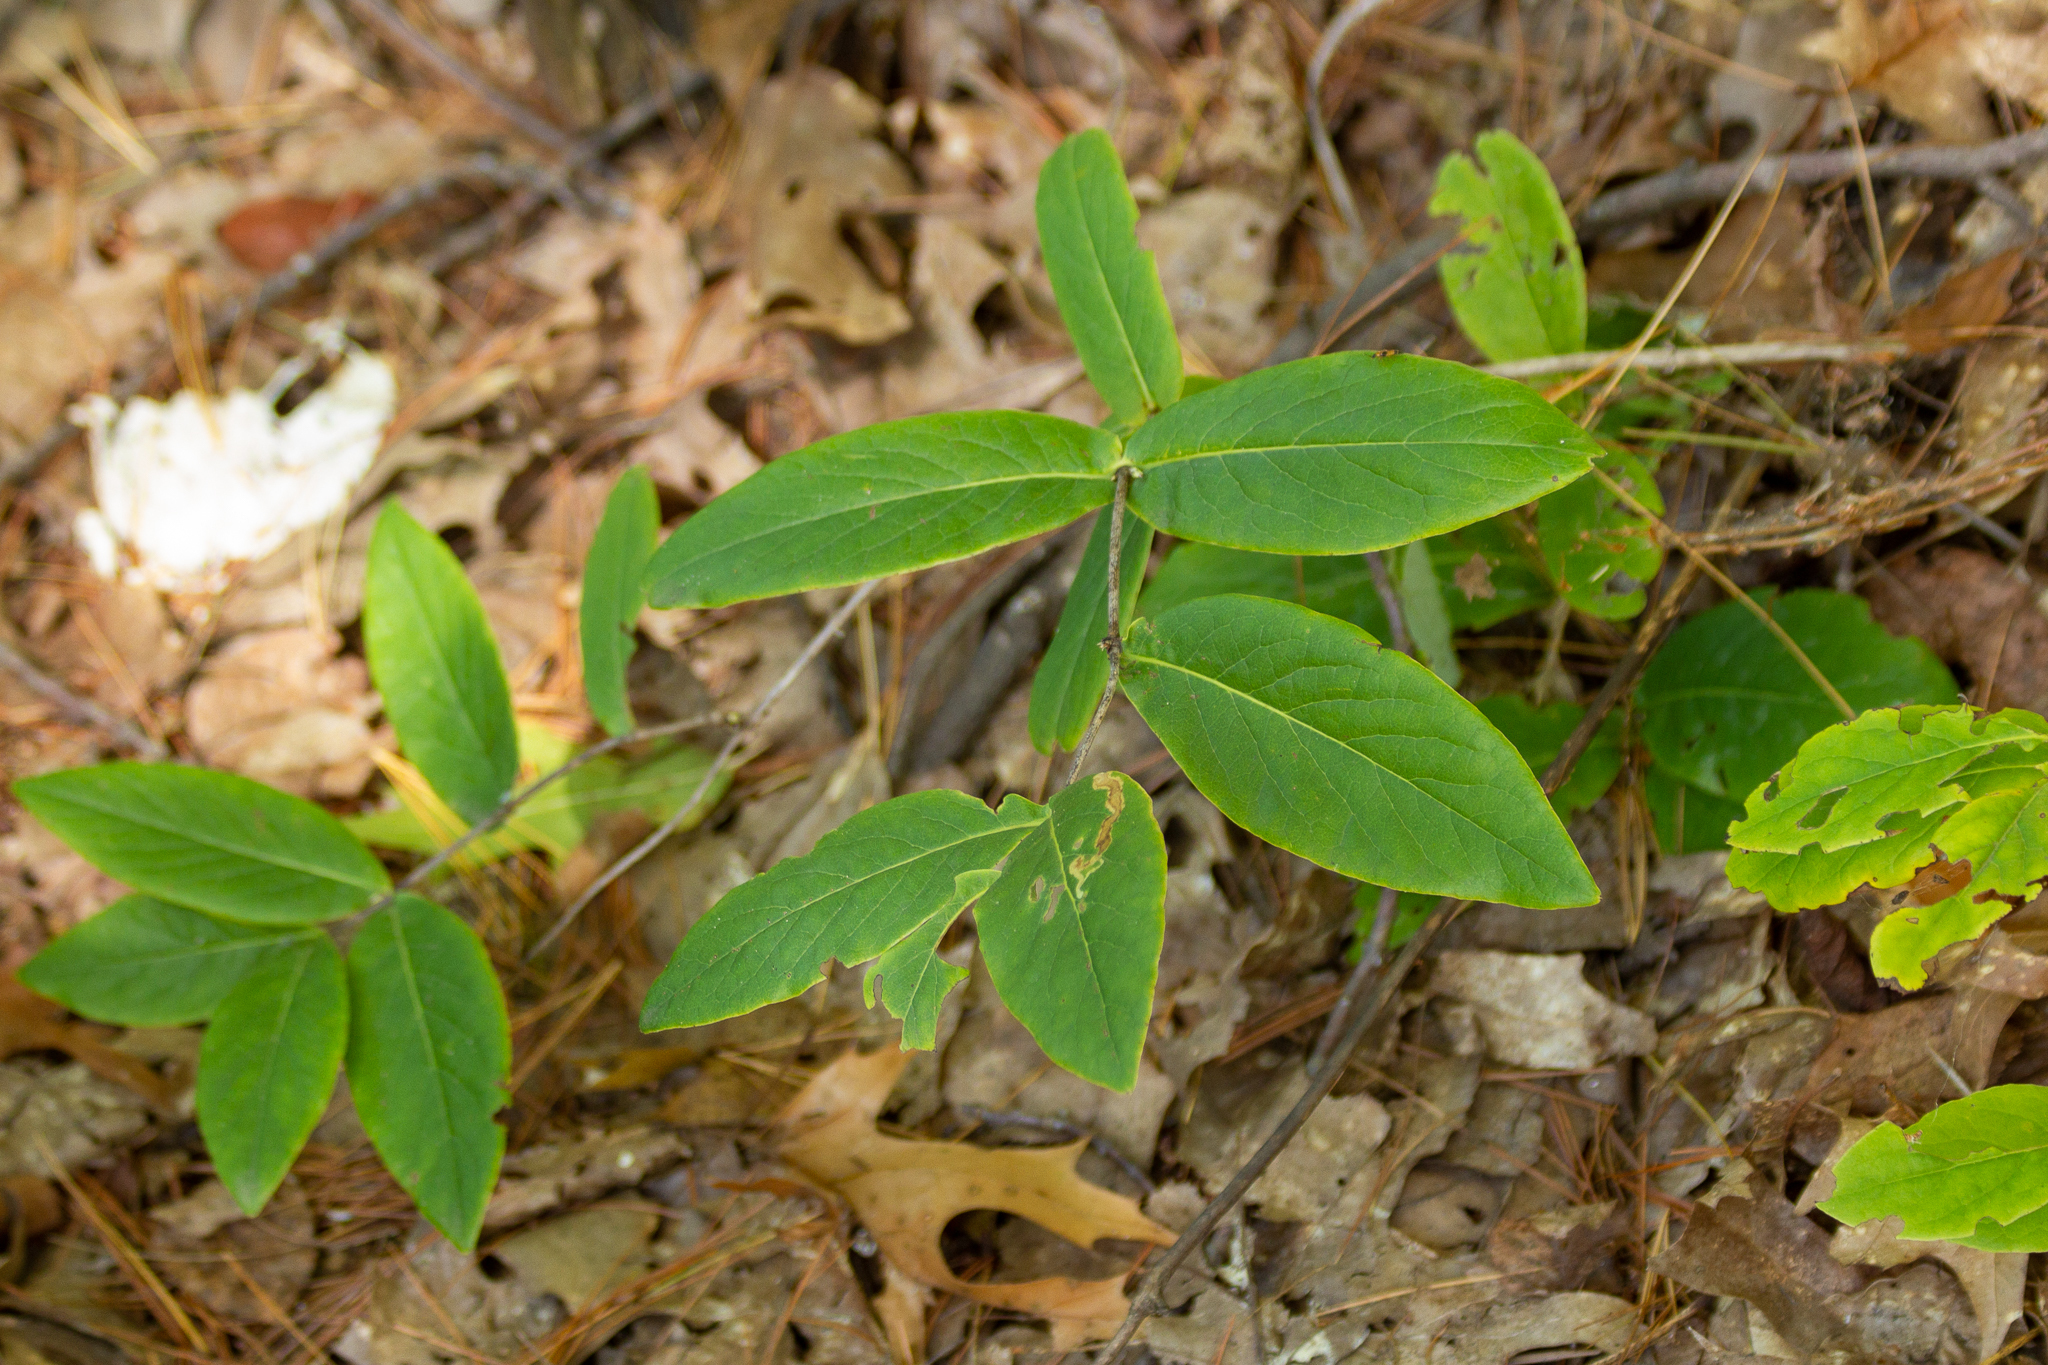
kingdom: Plantae
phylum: Tracheophyta
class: Magnoliopsida
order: Dipsacales
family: Caprifoliaceae
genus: Lonicera
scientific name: Lonicera dioica
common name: Limber honeysuckle
